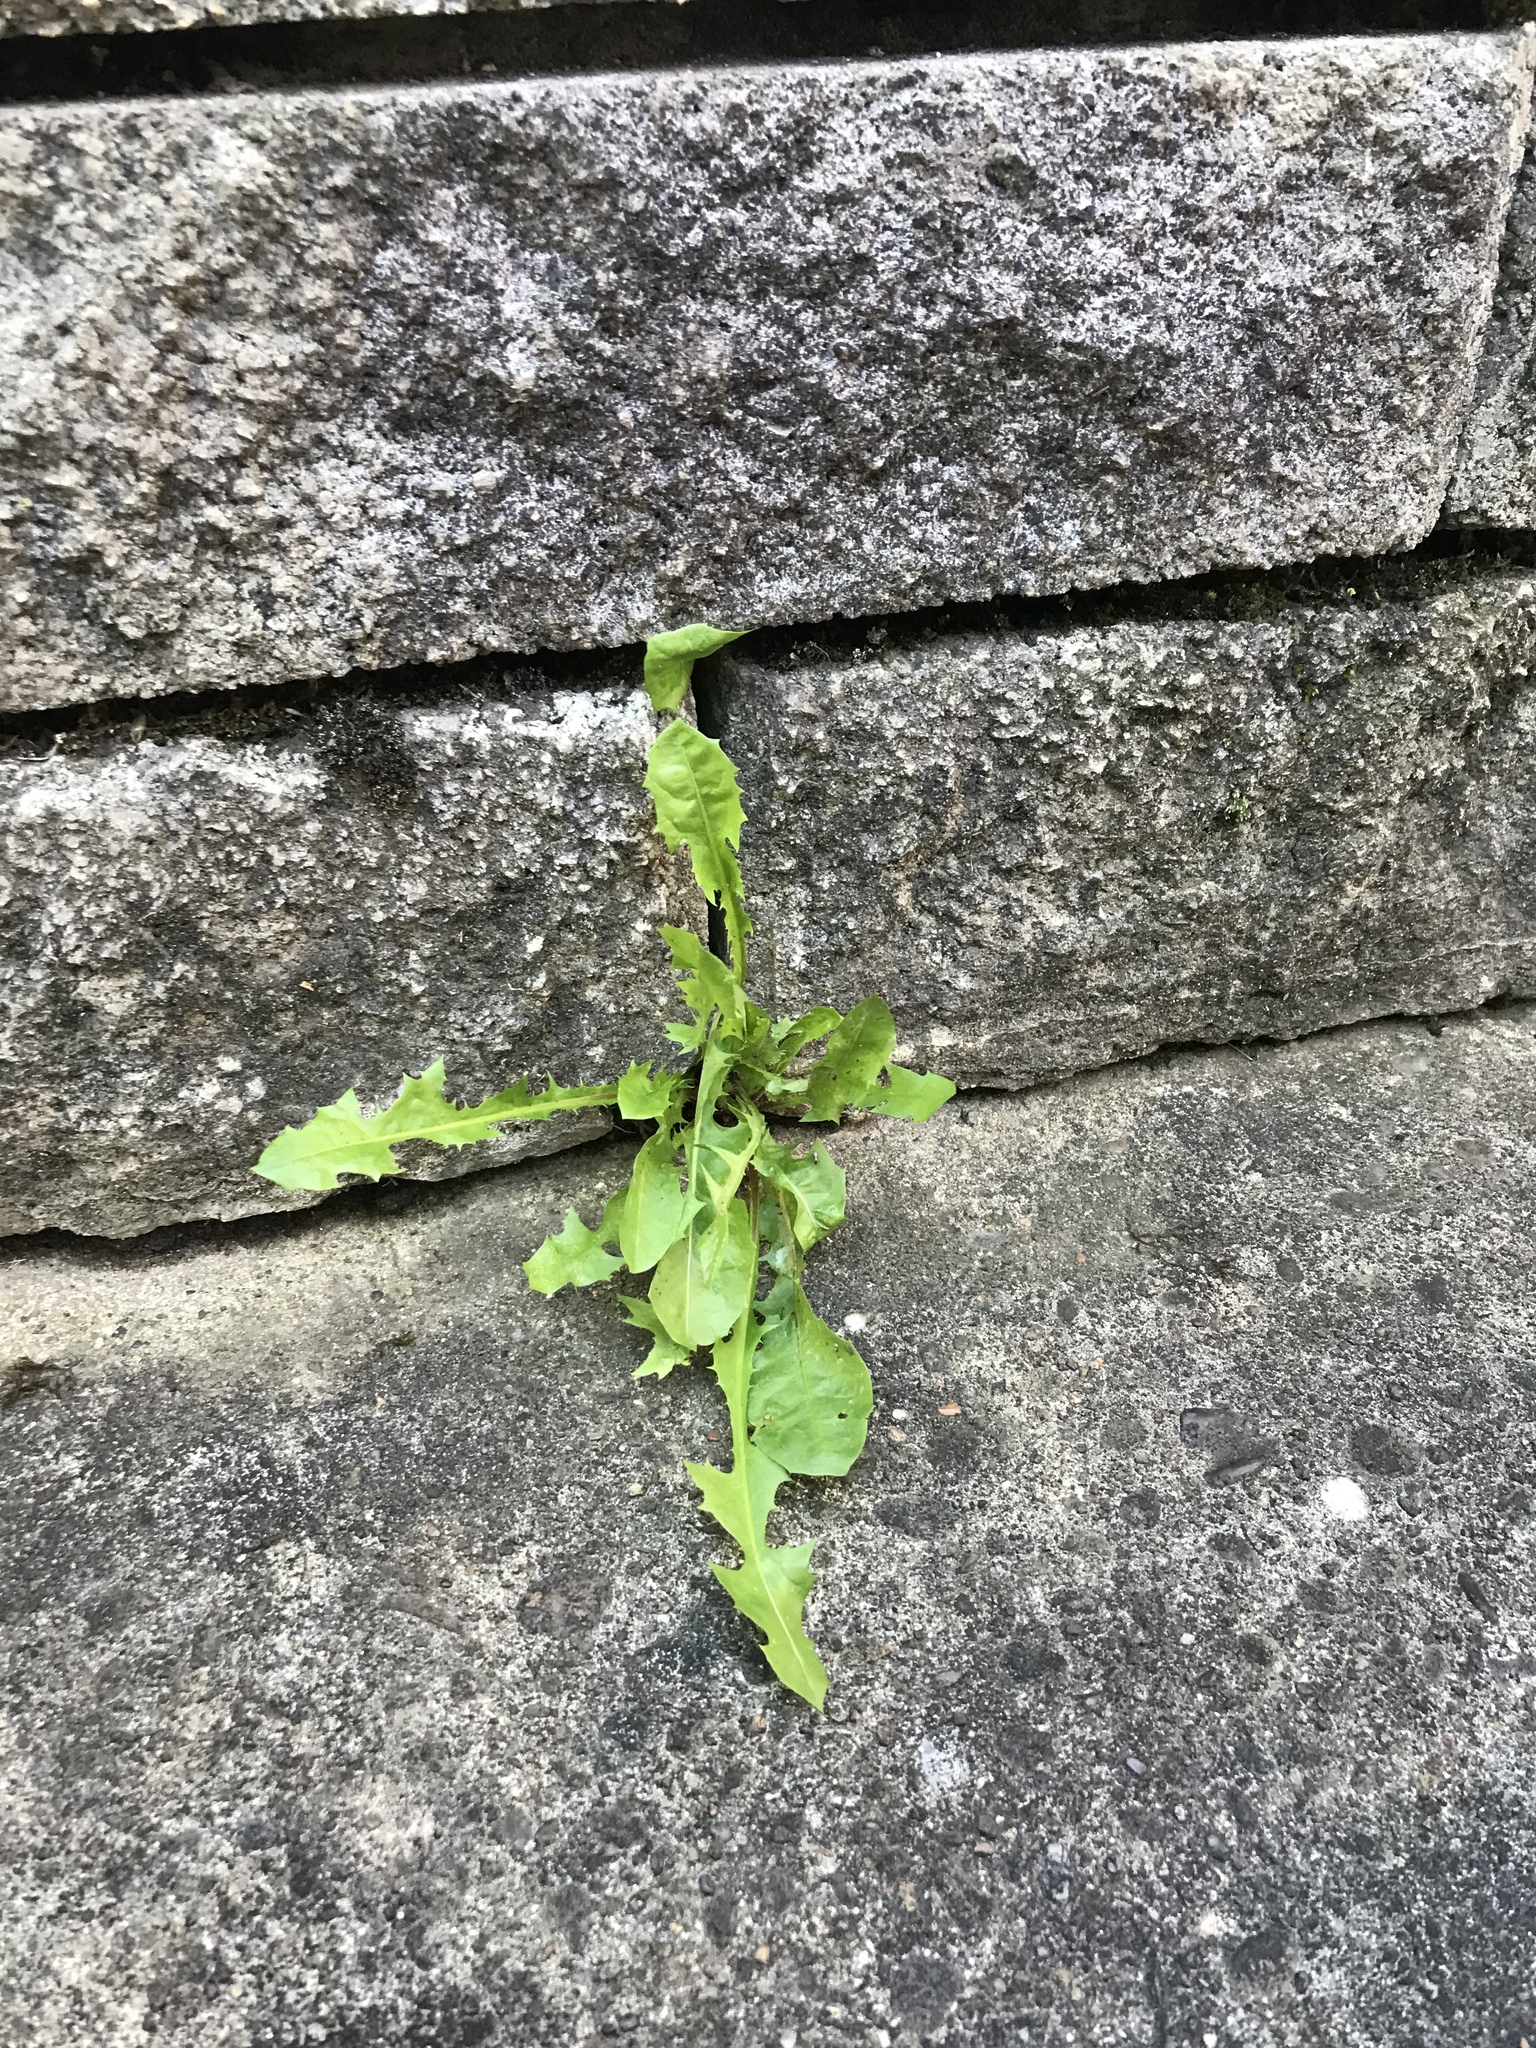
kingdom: Plantae
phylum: Tracheophyta
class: Magnoliopsida
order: Asterales
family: Asteraceae
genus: Taraxacum
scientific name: Taraxacum officinale
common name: Common dandelion
